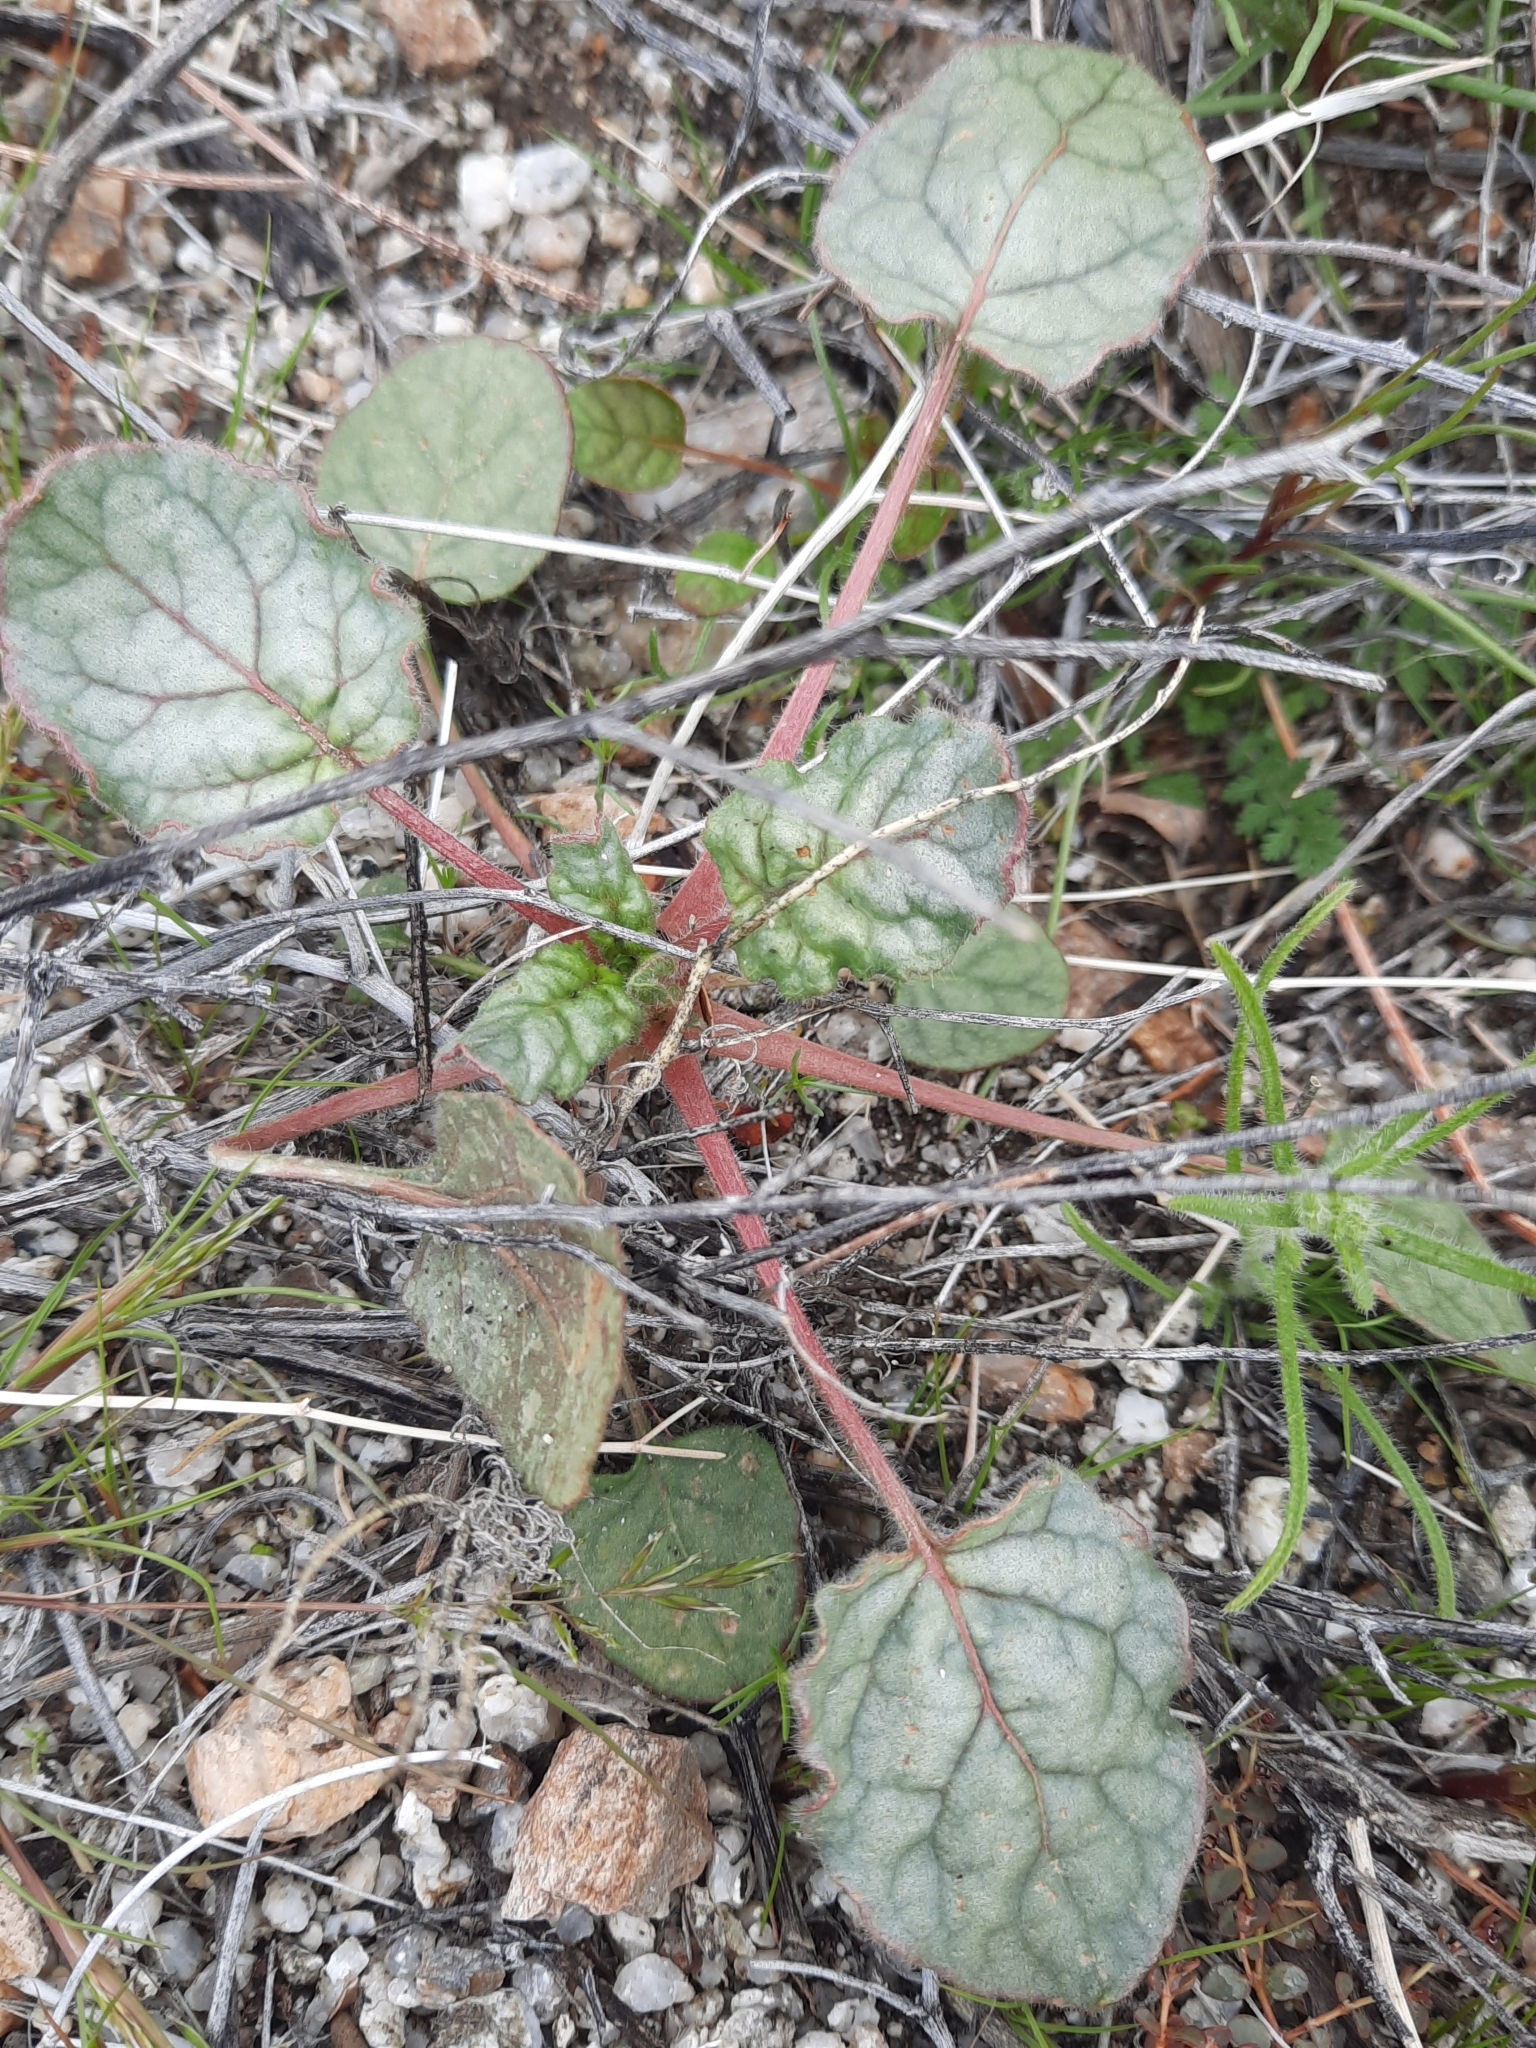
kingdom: Plantae
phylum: Tracheophyta
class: Magnoliopsida
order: Caryophyllales
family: Polygonaceae
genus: Eriogonum
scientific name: Eriogonum inflatum
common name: Desert trumpet
